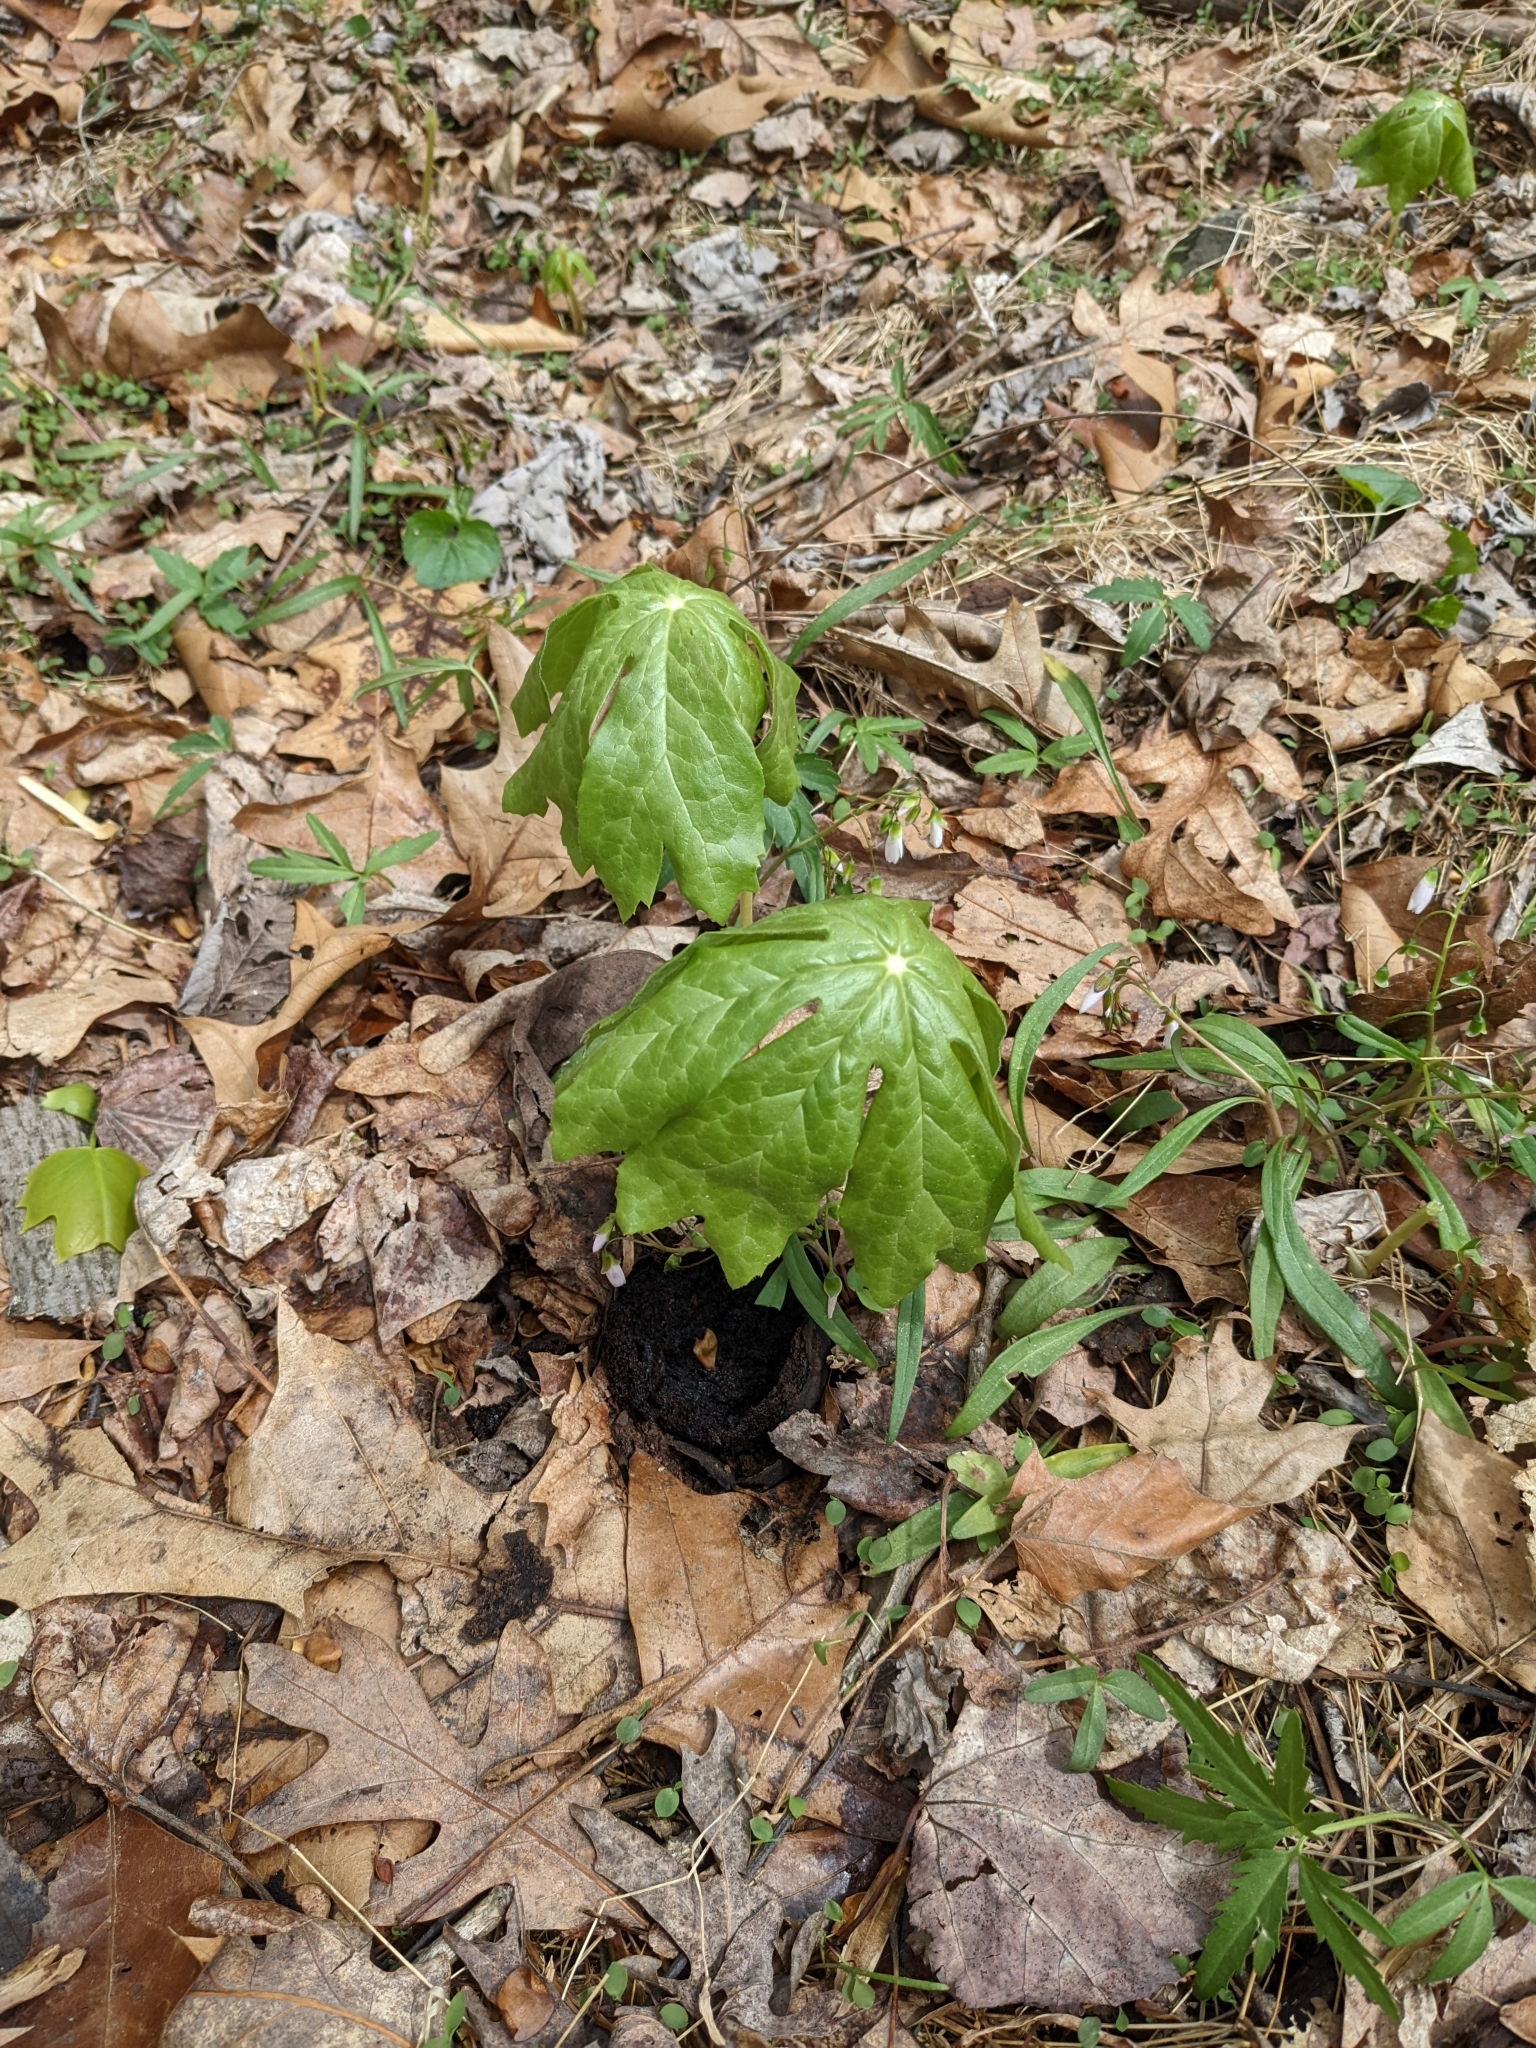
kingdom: Plantae
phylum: Tracheophyta
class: Magnoliopsida
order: Ranunculales
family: Berberidaceae
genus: Podophyllum
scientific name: Podophyllum peltatum
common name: Wild mandrake
